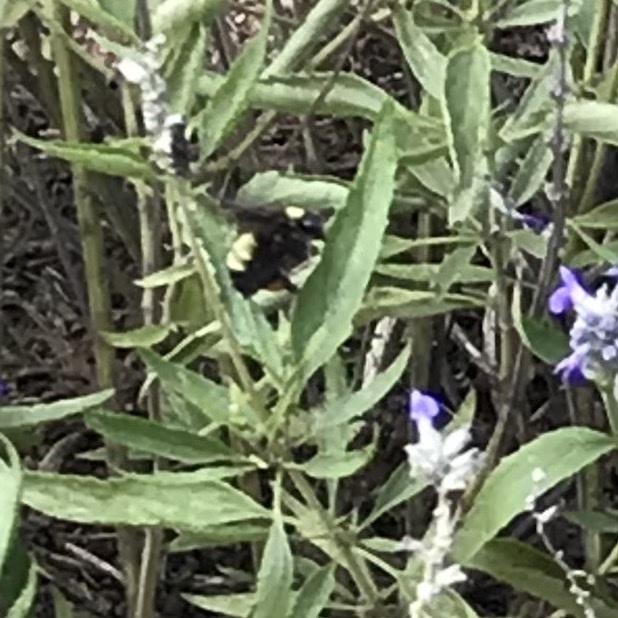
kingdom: Animalia
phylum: Arthropoda
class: Insecta
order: Hymenoptera
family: Apidae
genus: Bombus
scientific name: Bombus pensylvanicus
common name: Bumble bee
